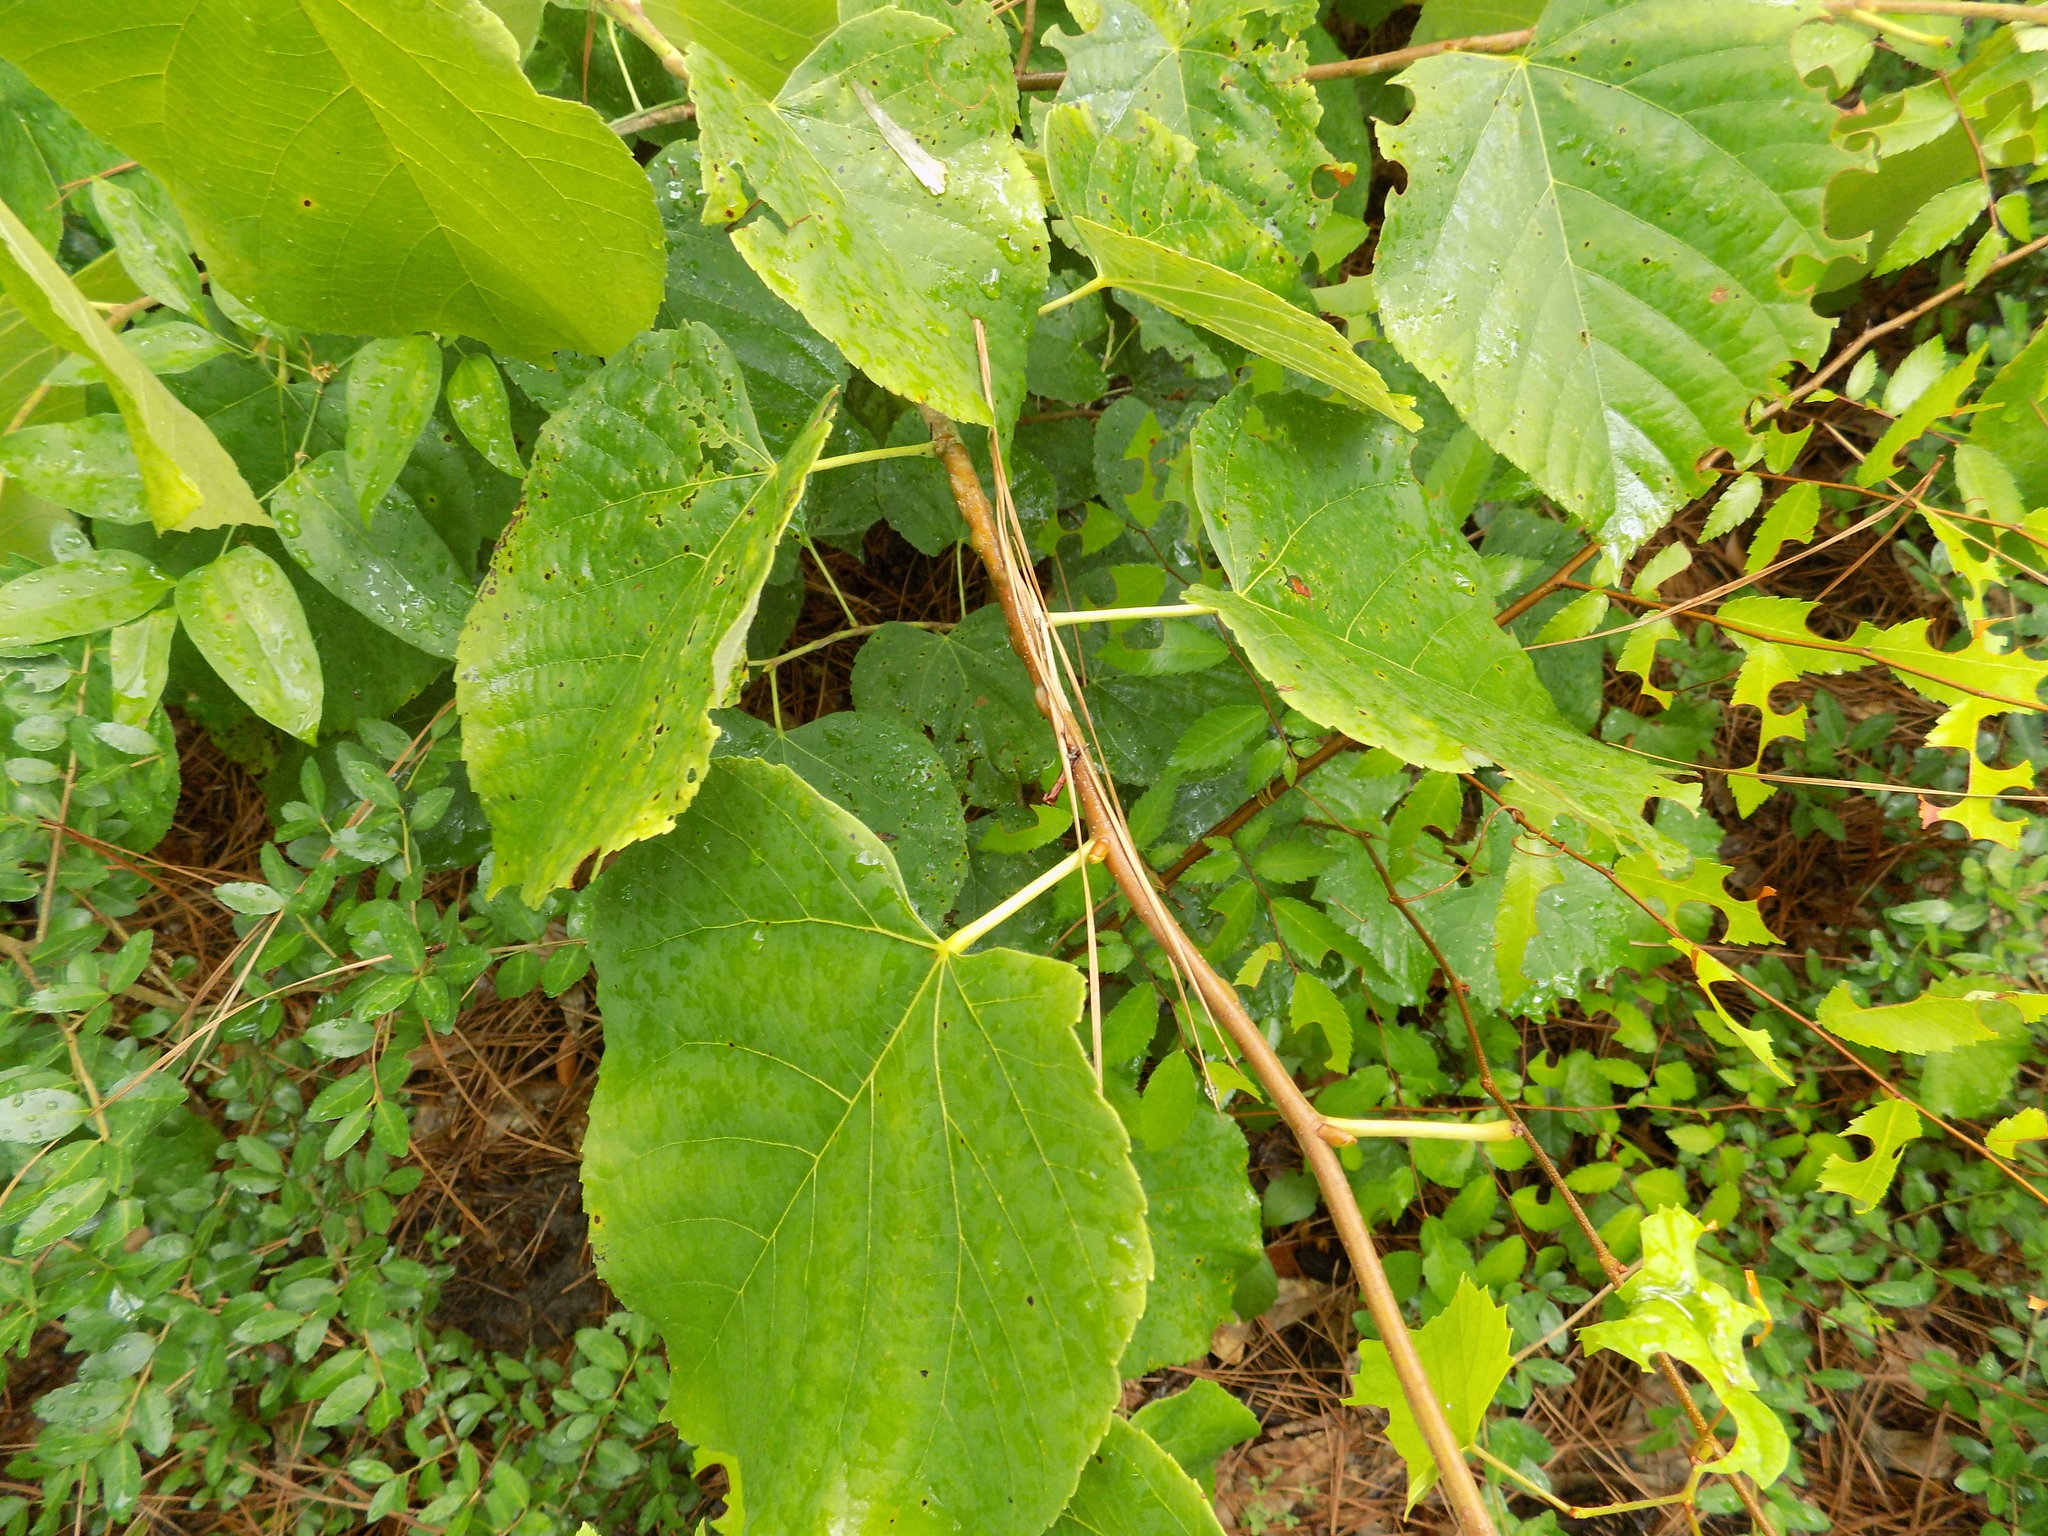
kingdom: Plantae
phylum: Tracheophyta
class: Magnoliopsida
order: Malvales
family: Malvaceae
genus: Tilia
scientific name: Tilia americana
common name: Basswood
